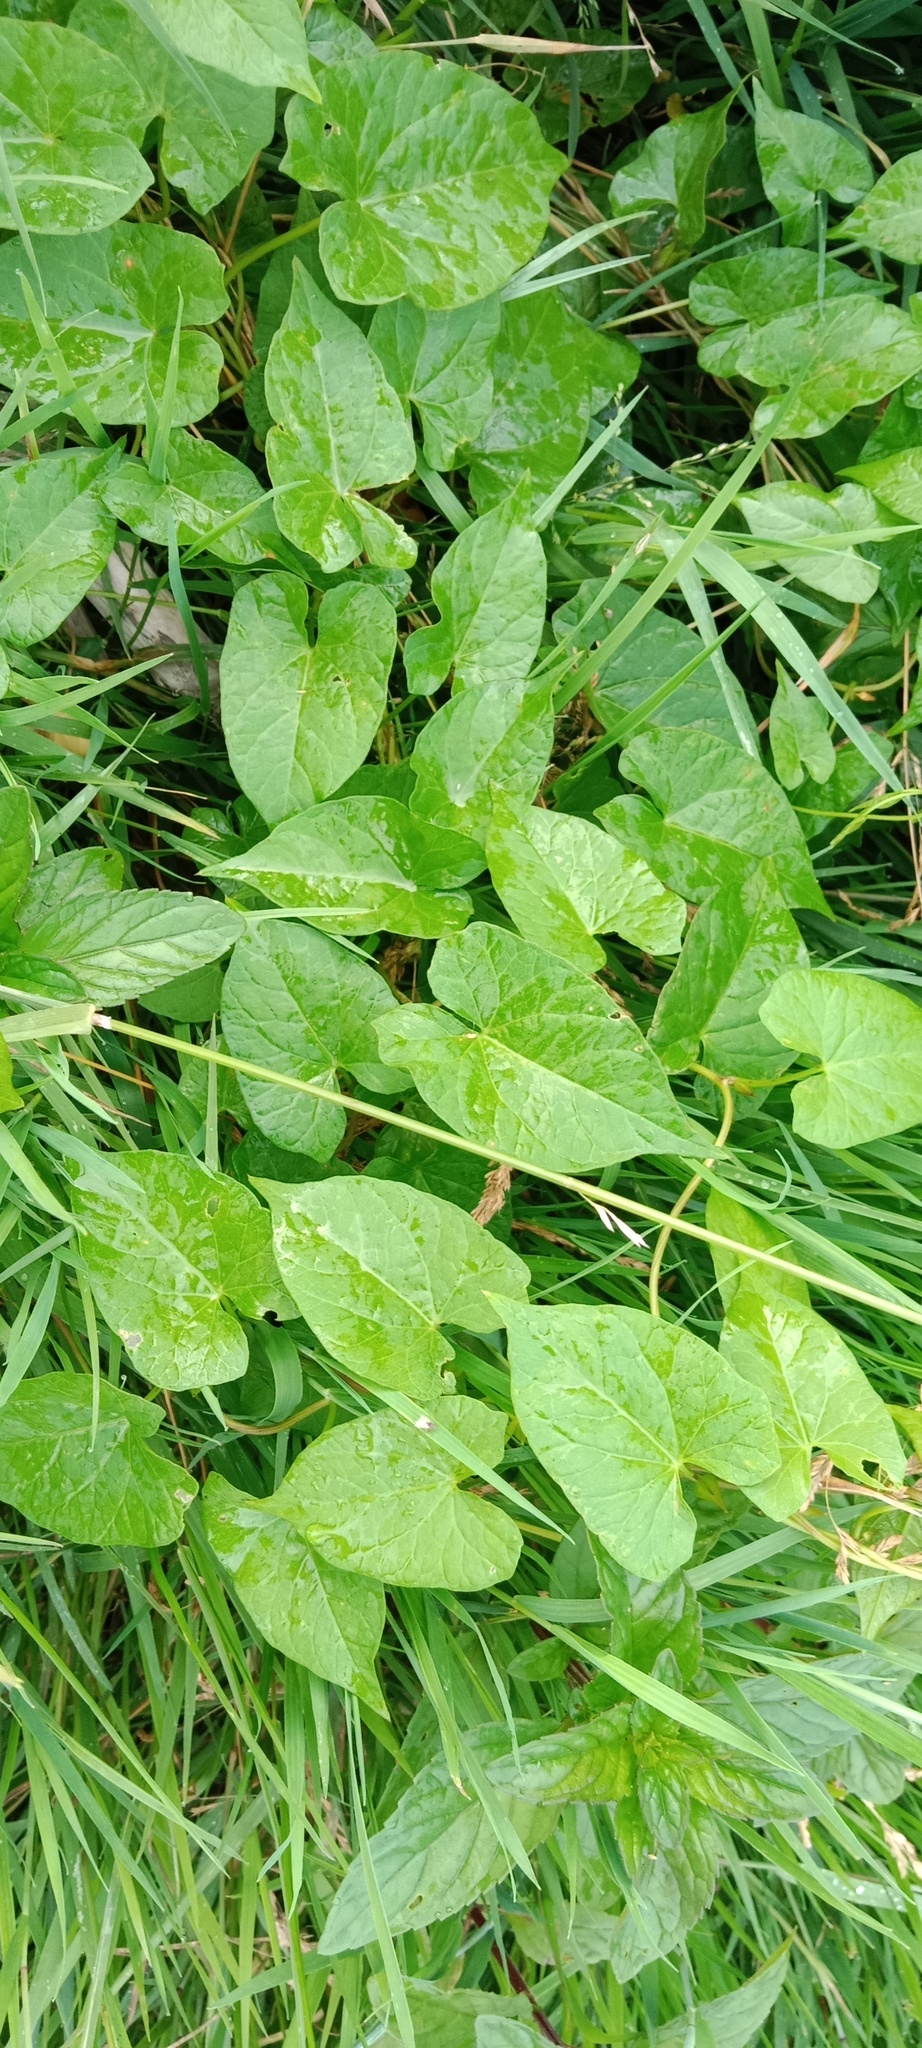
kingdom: Plantae
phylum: Tracheophyta
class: Magnoliopsida
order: Solanales
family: Convolvulaceae
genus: Calystegia
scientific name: Calystegia sepium
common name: Hedge bindweed
